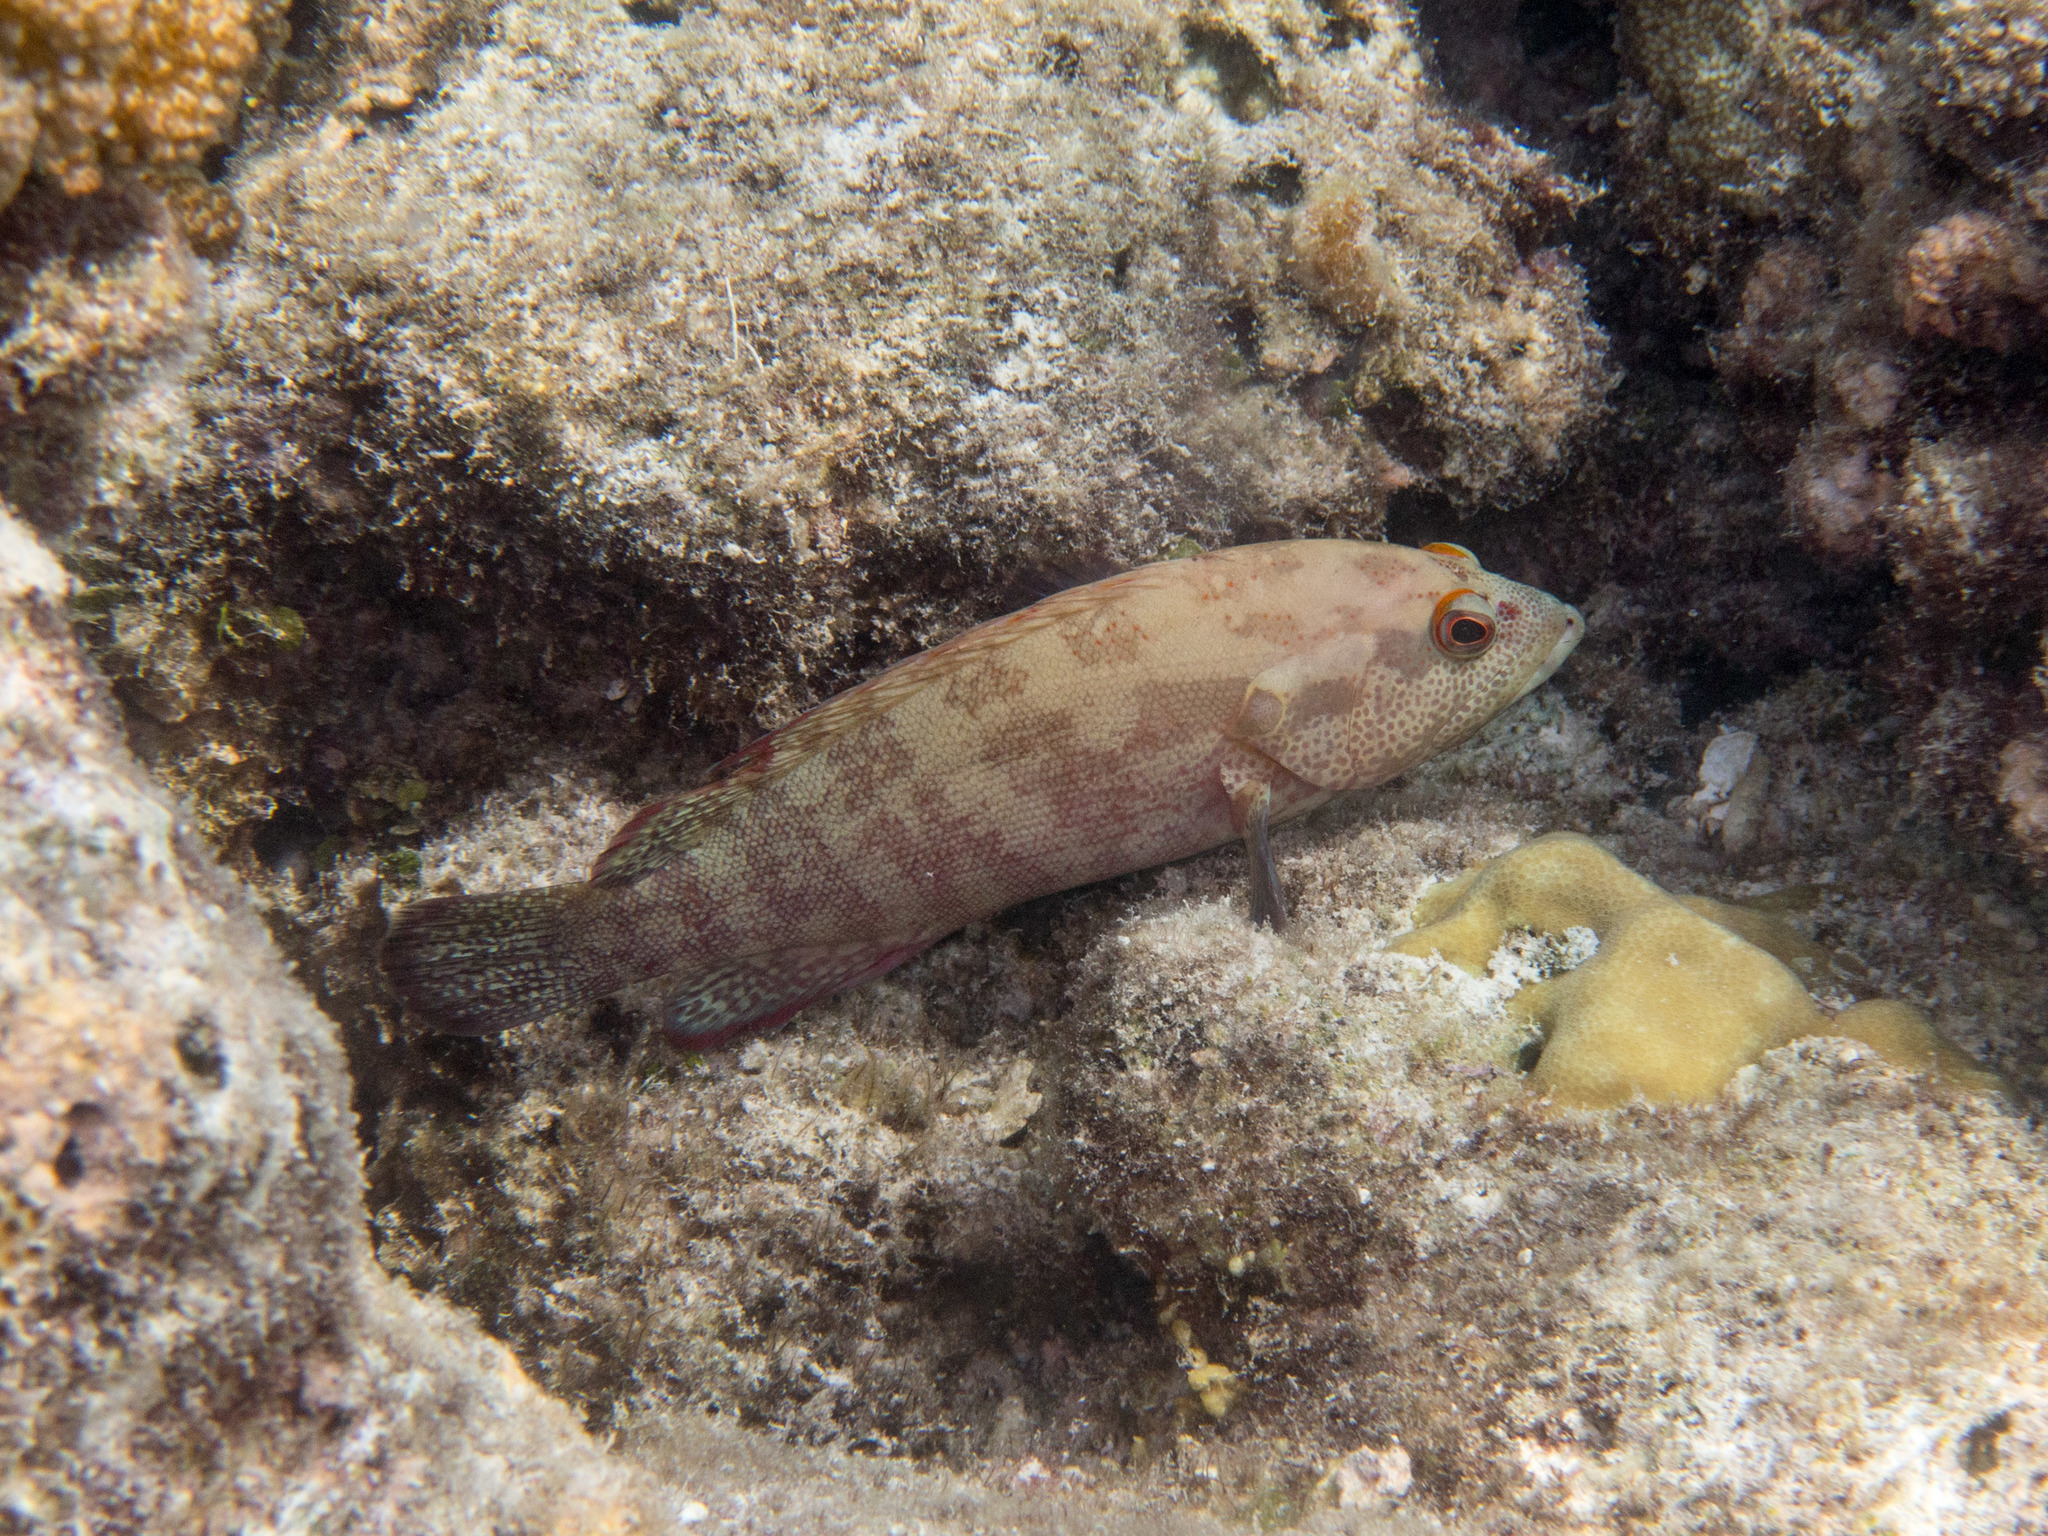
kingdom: Animalia
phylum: Chordata
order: Perciformes
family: Serranidae
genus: Cephalopholis
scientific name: Cephalopholis nigripinnis
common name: Duskyfin hind
